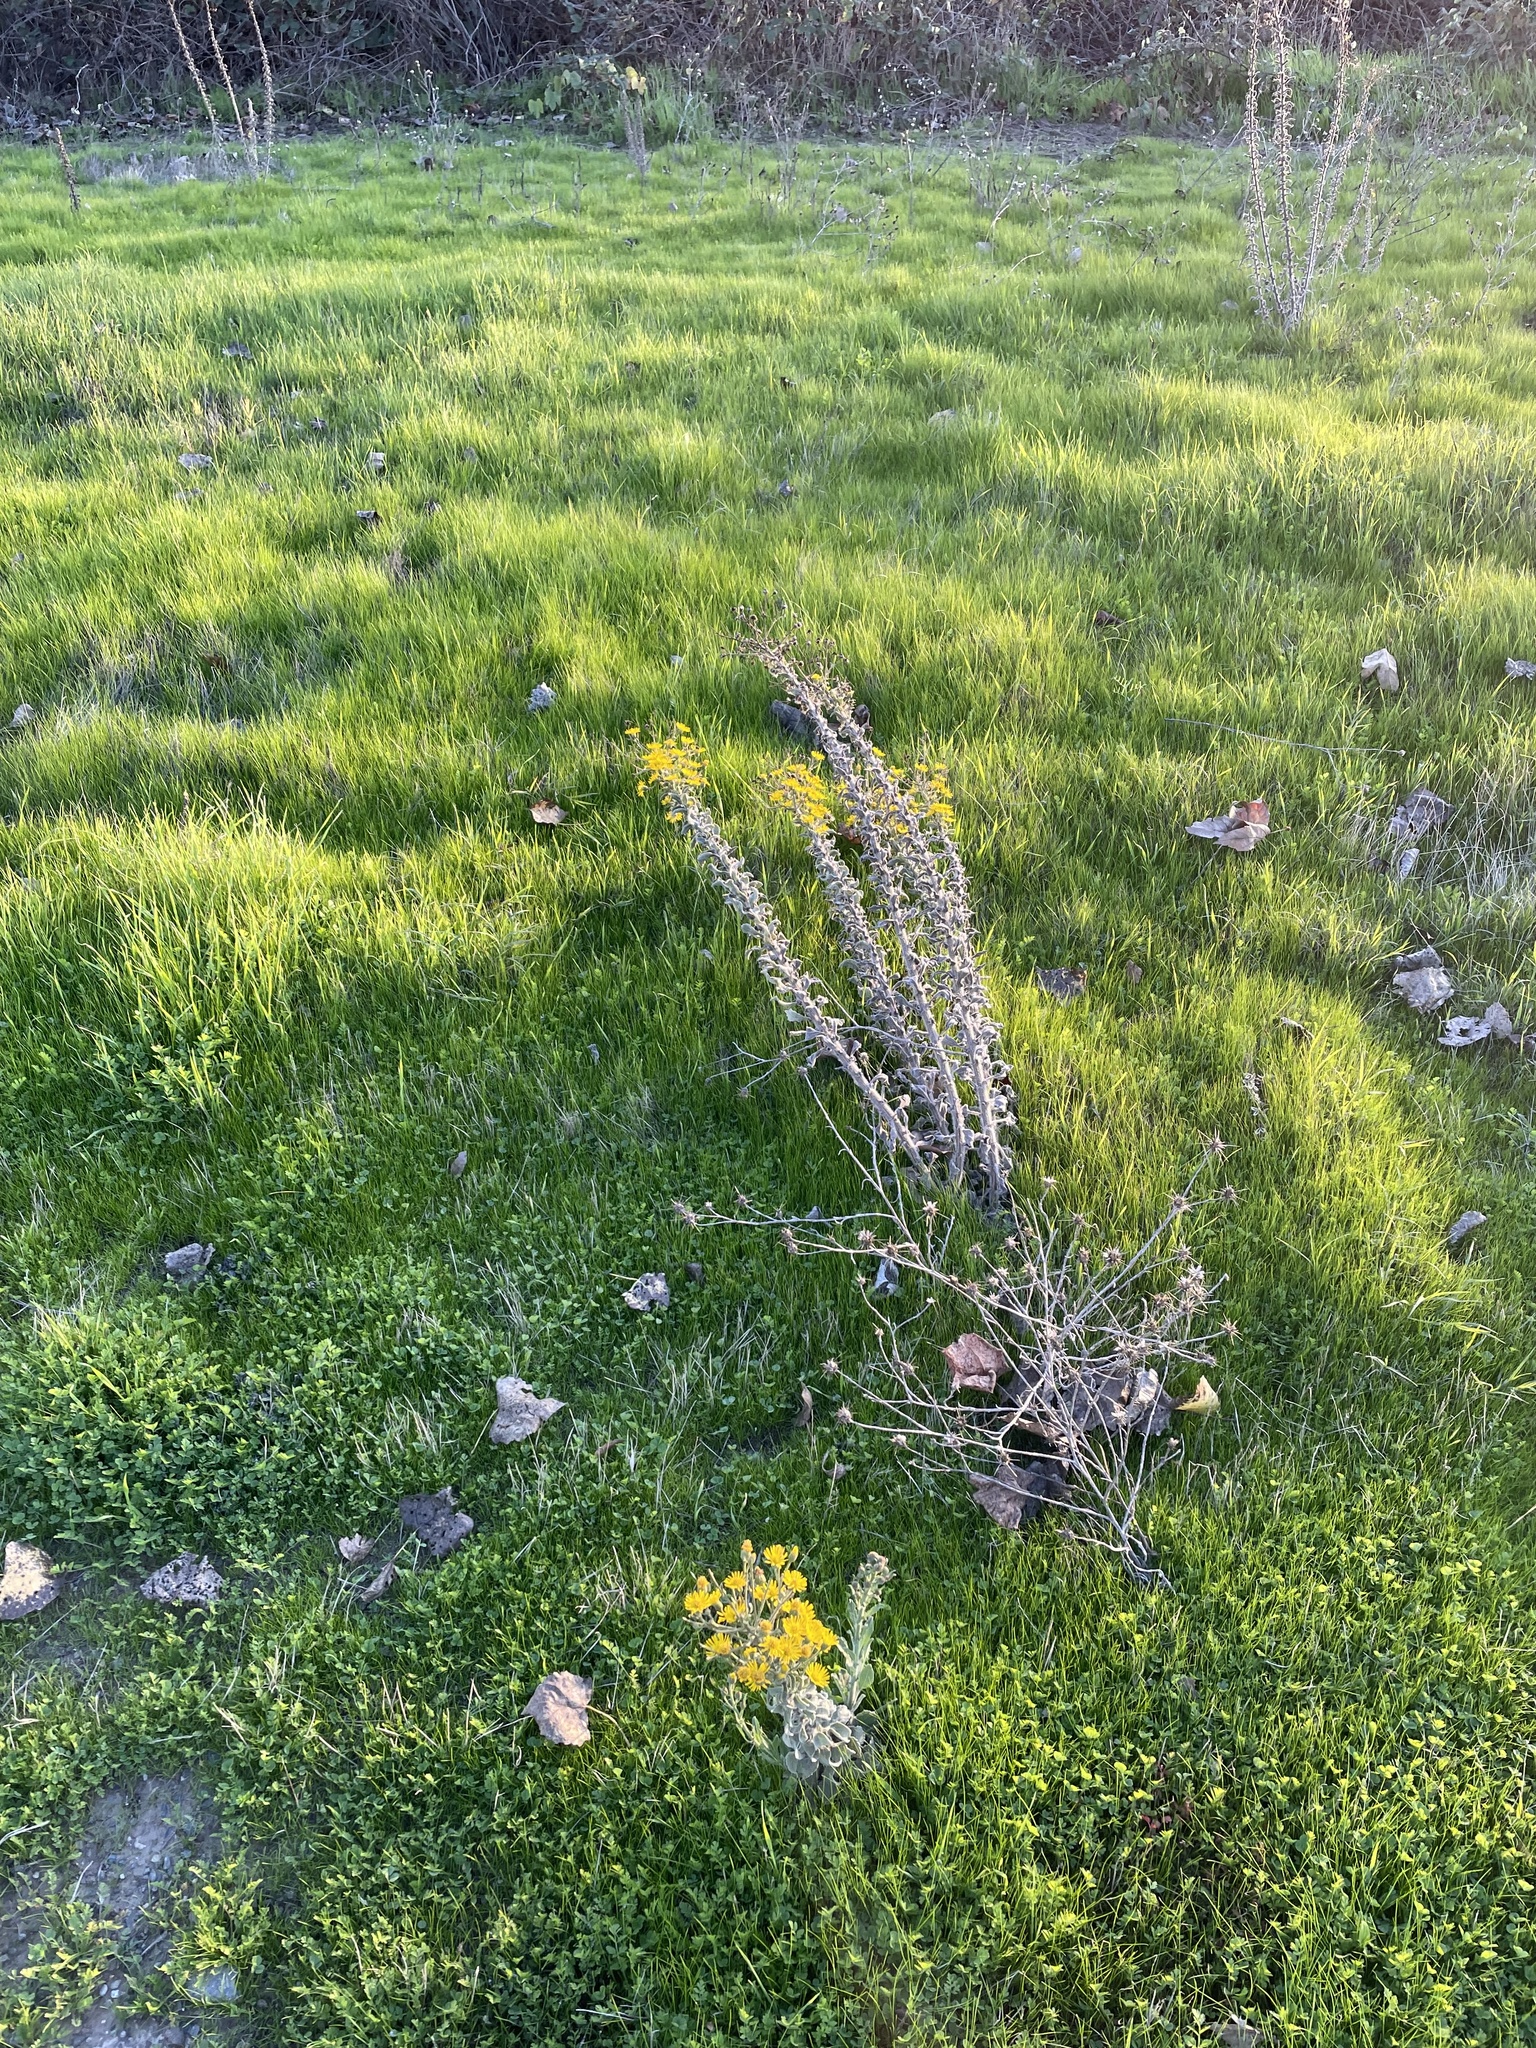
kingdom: Plantae
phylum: Tracheophyta
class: Magnoliopsida
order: Asterales
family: Asteraceae
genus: Heterotheca
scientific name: Heterotheca grandiflora
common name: Telegraphweed
